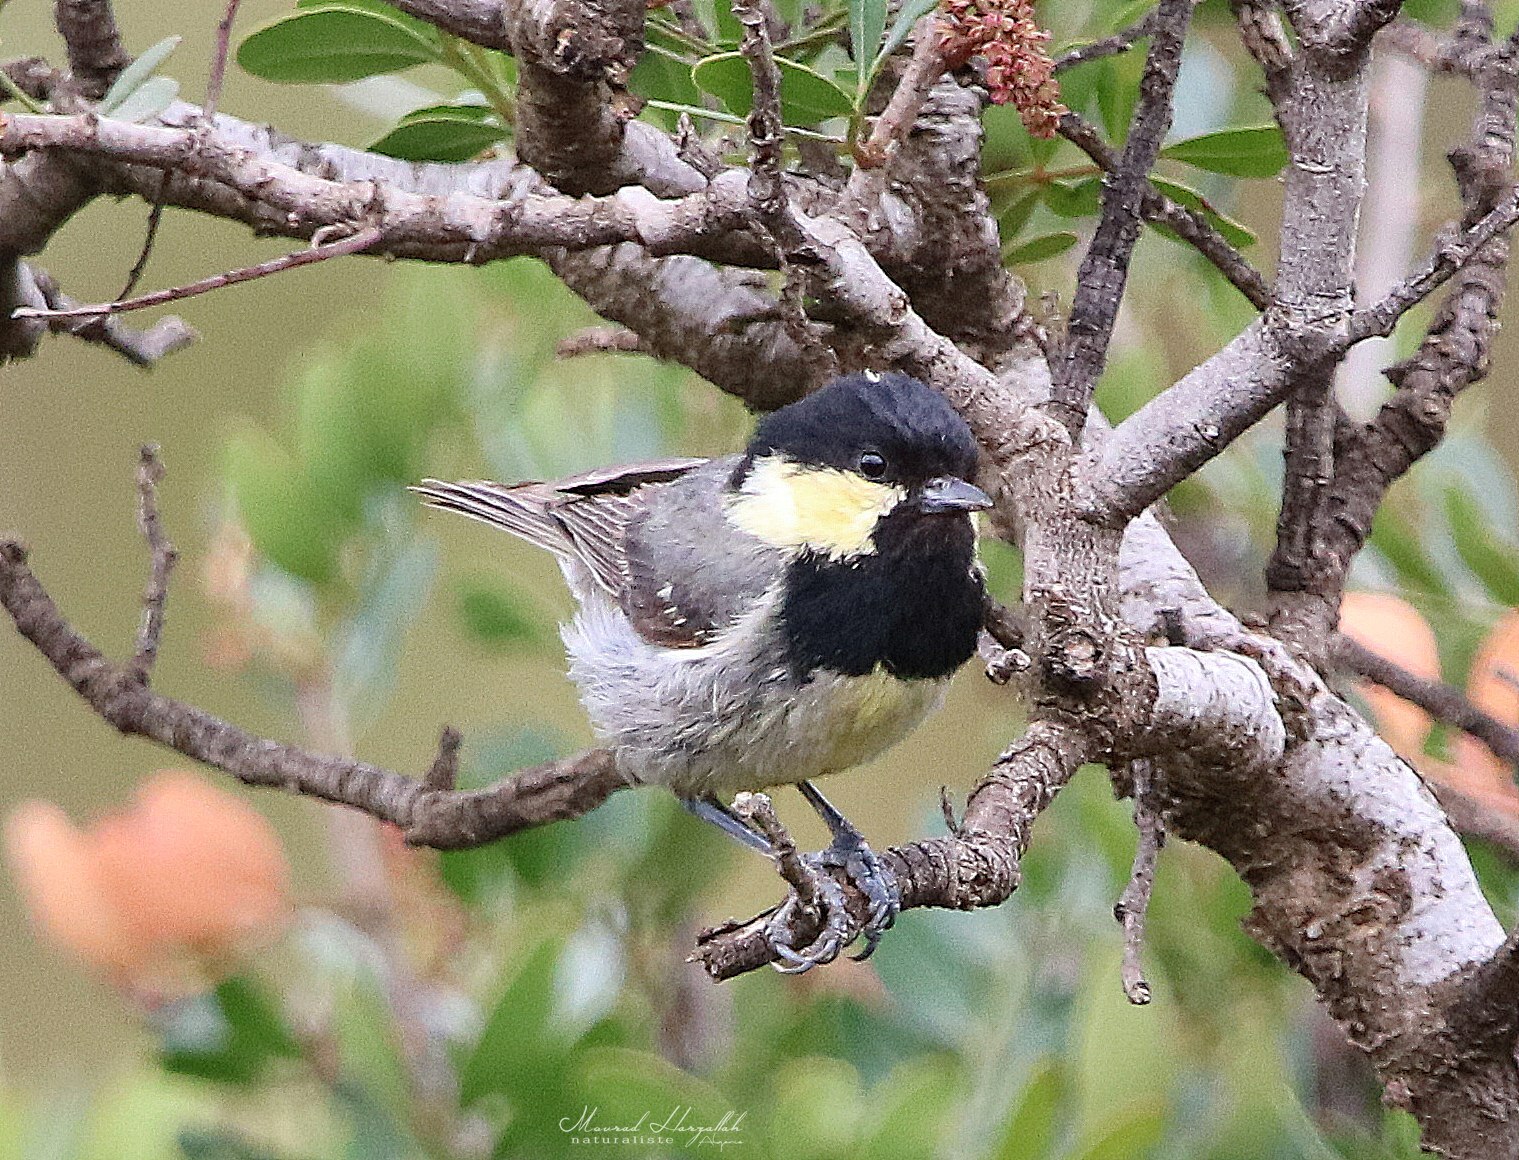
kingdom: Animalia
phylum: Chordata
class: Aves
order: Passeriformes
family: Paridae
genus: Periparus
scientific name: Periparus ater
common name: Coal tit
